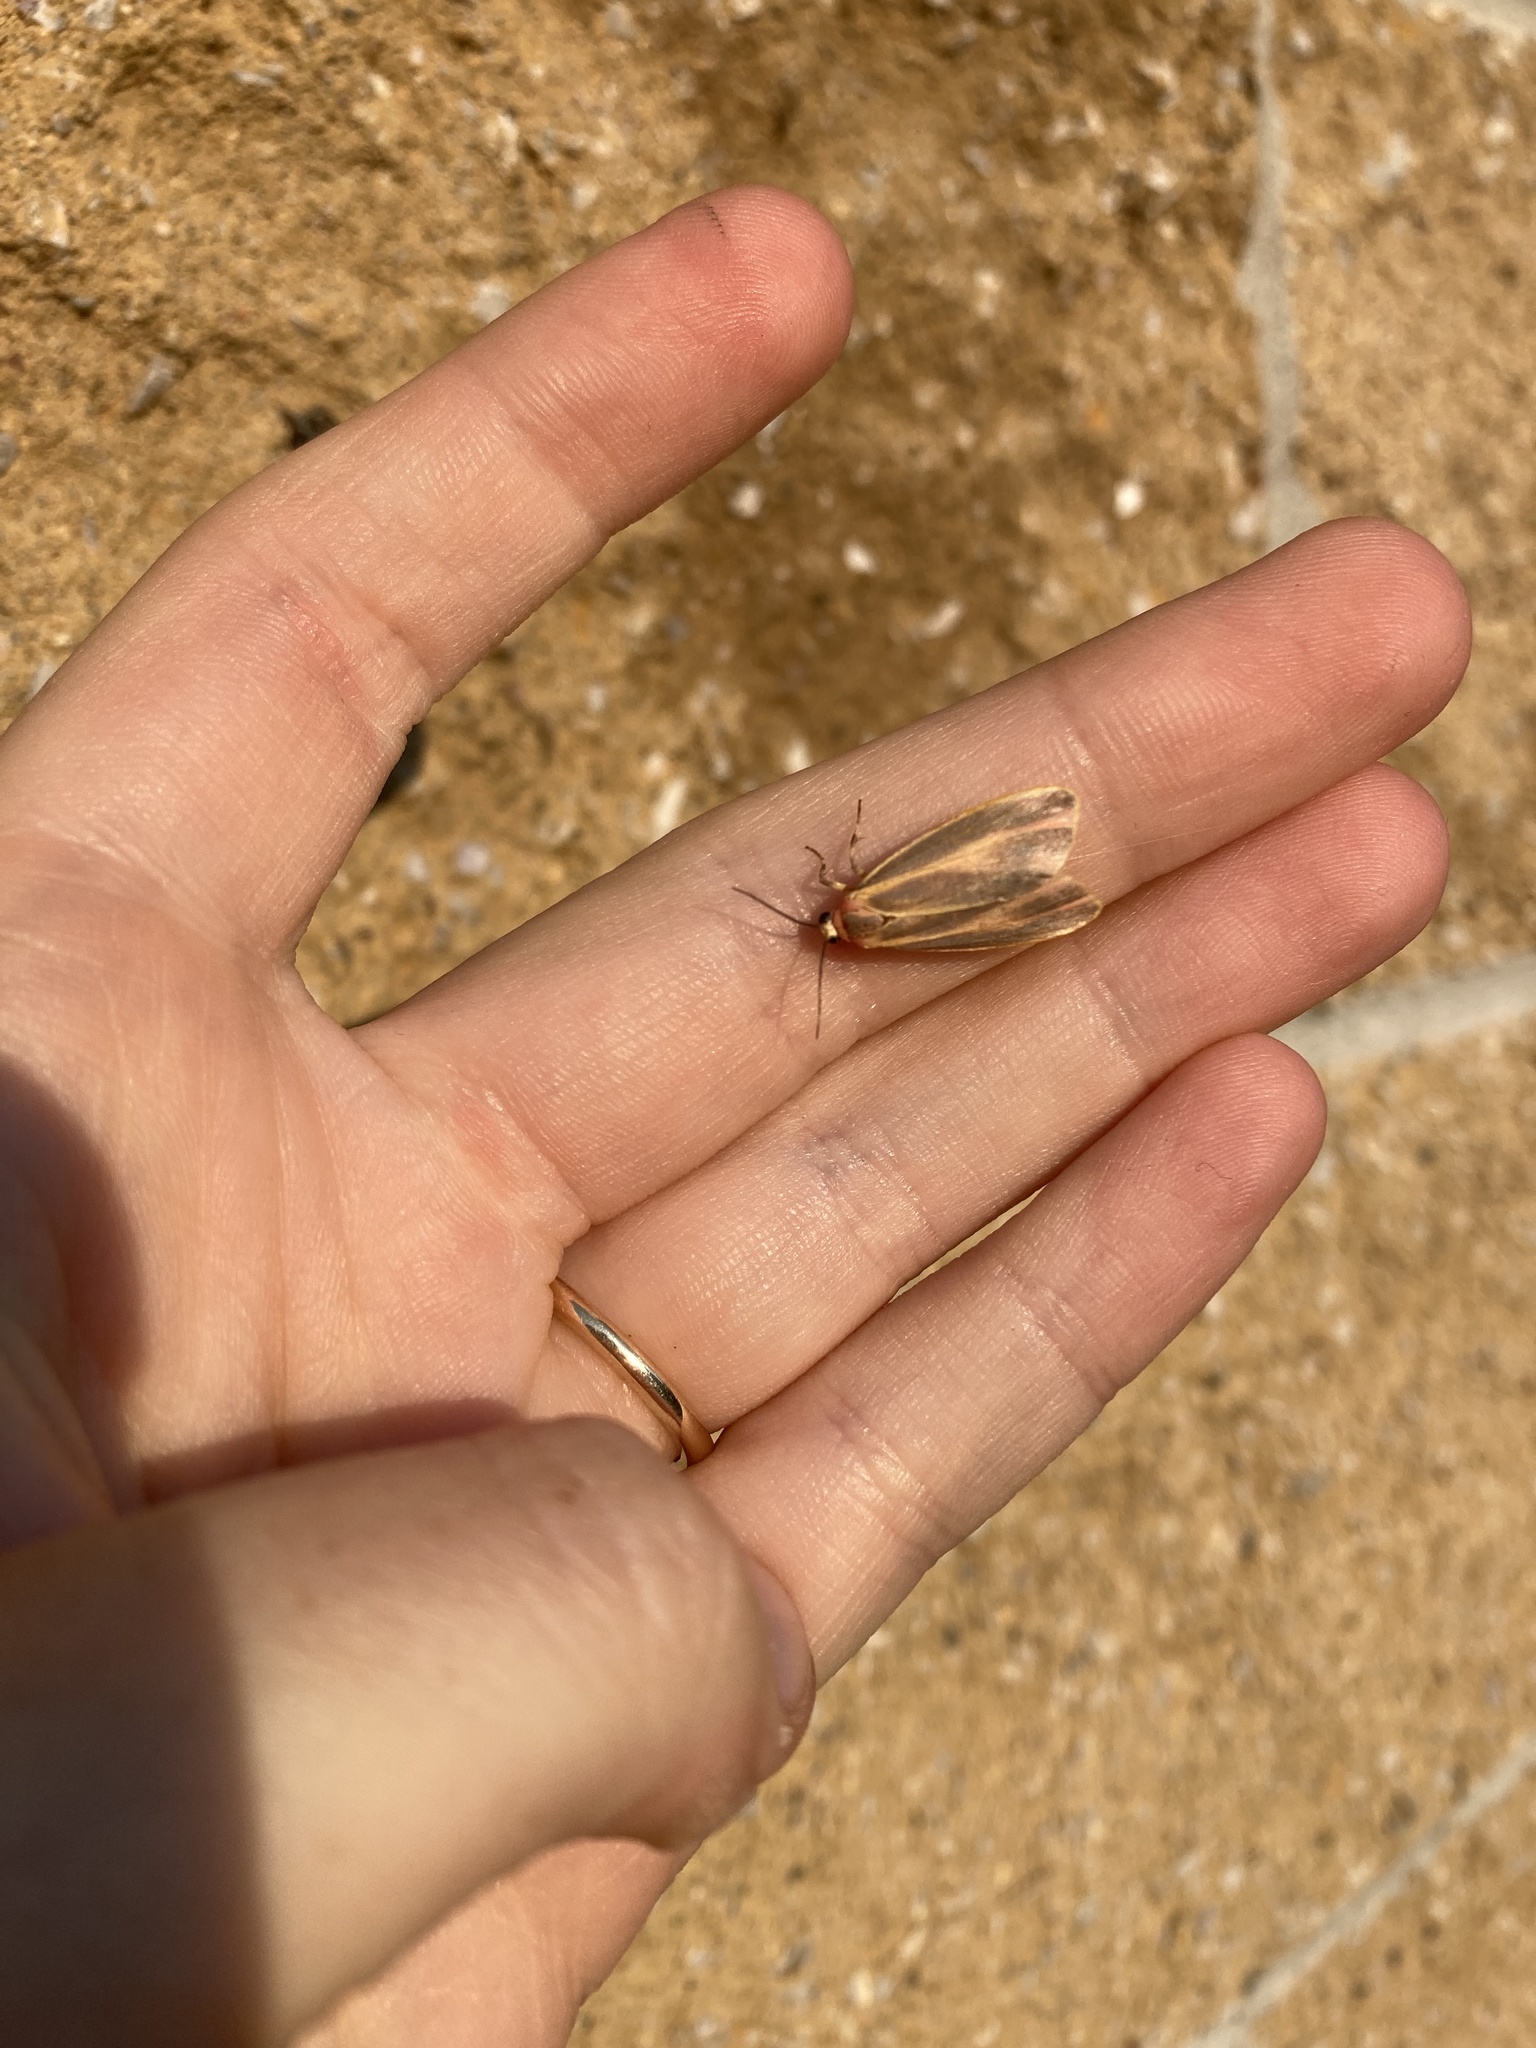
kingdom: Animalia
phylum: Arthropoda
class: Insecta
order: Lepidoptera
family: Erebidae
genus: Hypoprepia
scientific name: Hypoprepia fucosa
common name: Painted lichen moth
